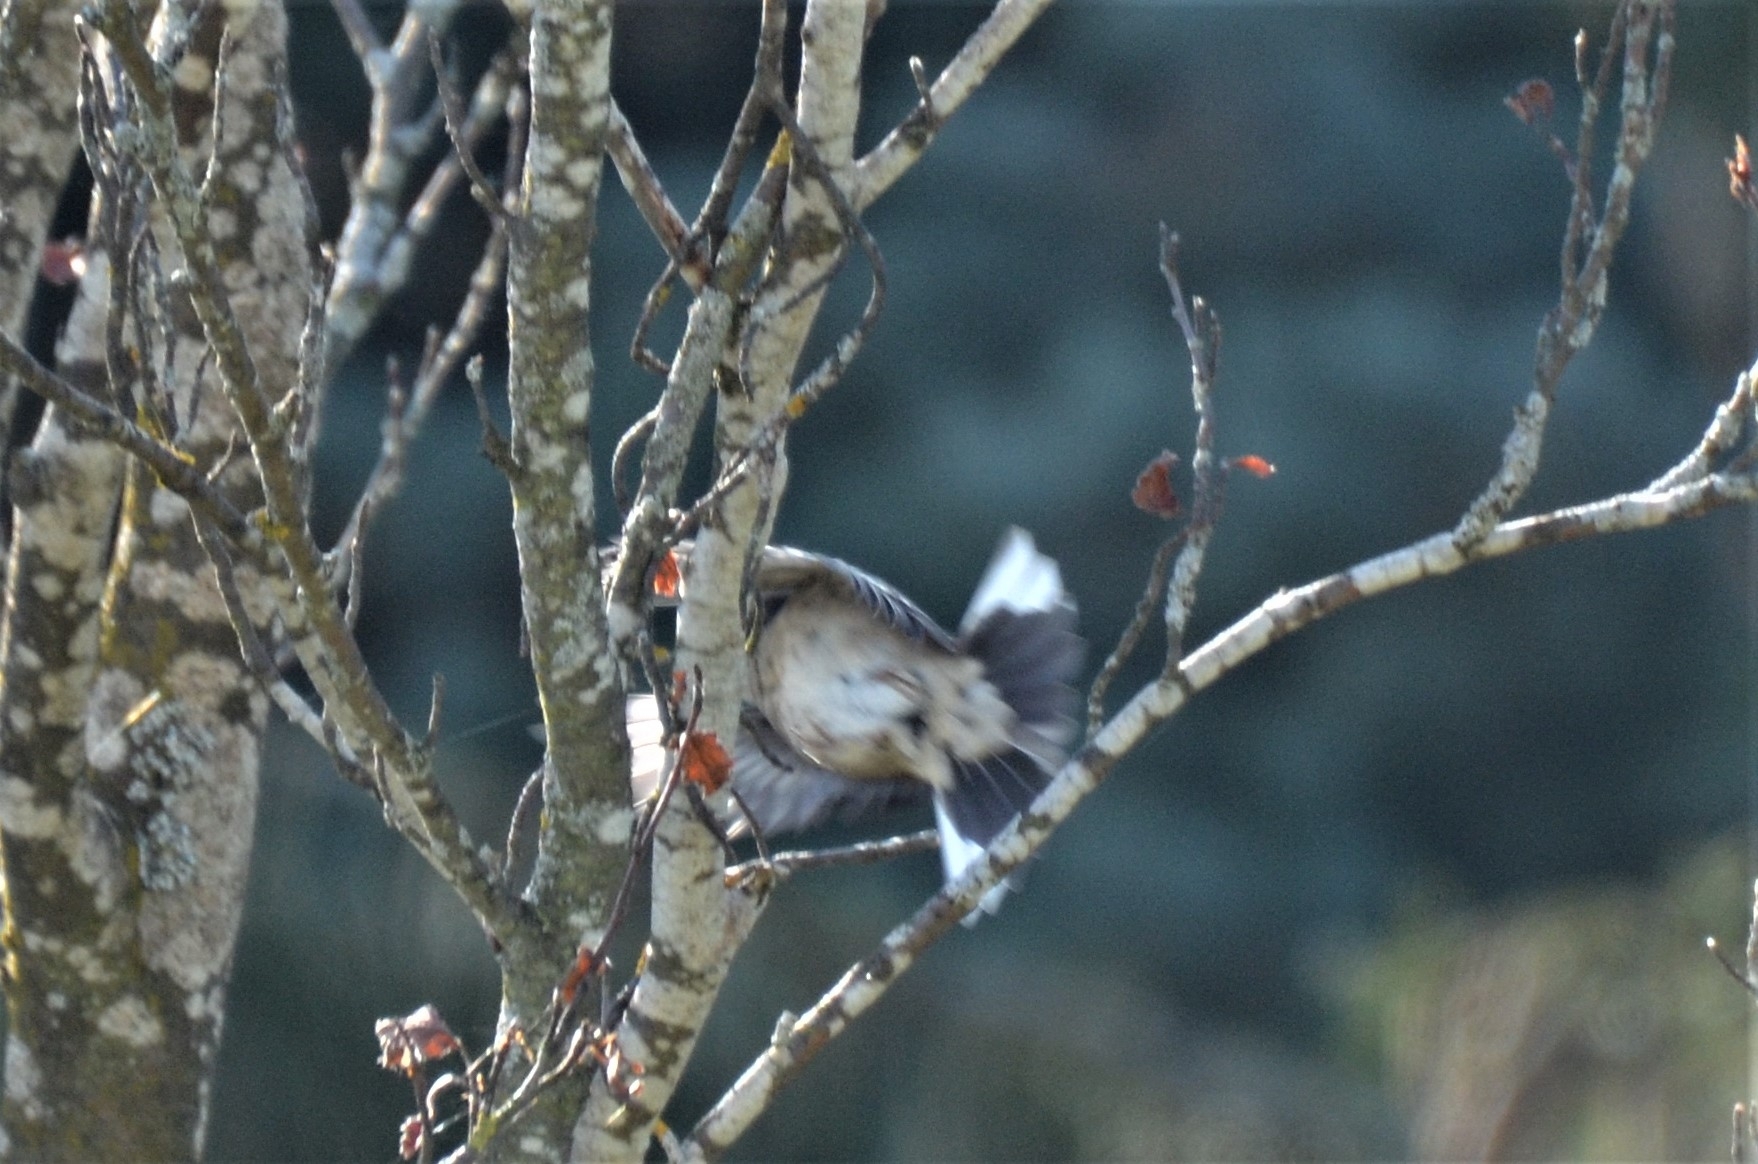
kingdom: Animalia
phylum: Chordata
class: Aves
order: Passeriformes
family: Fringillidae
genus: Fringilla
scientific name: Fringilla coelebs
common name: Common chaffinch
